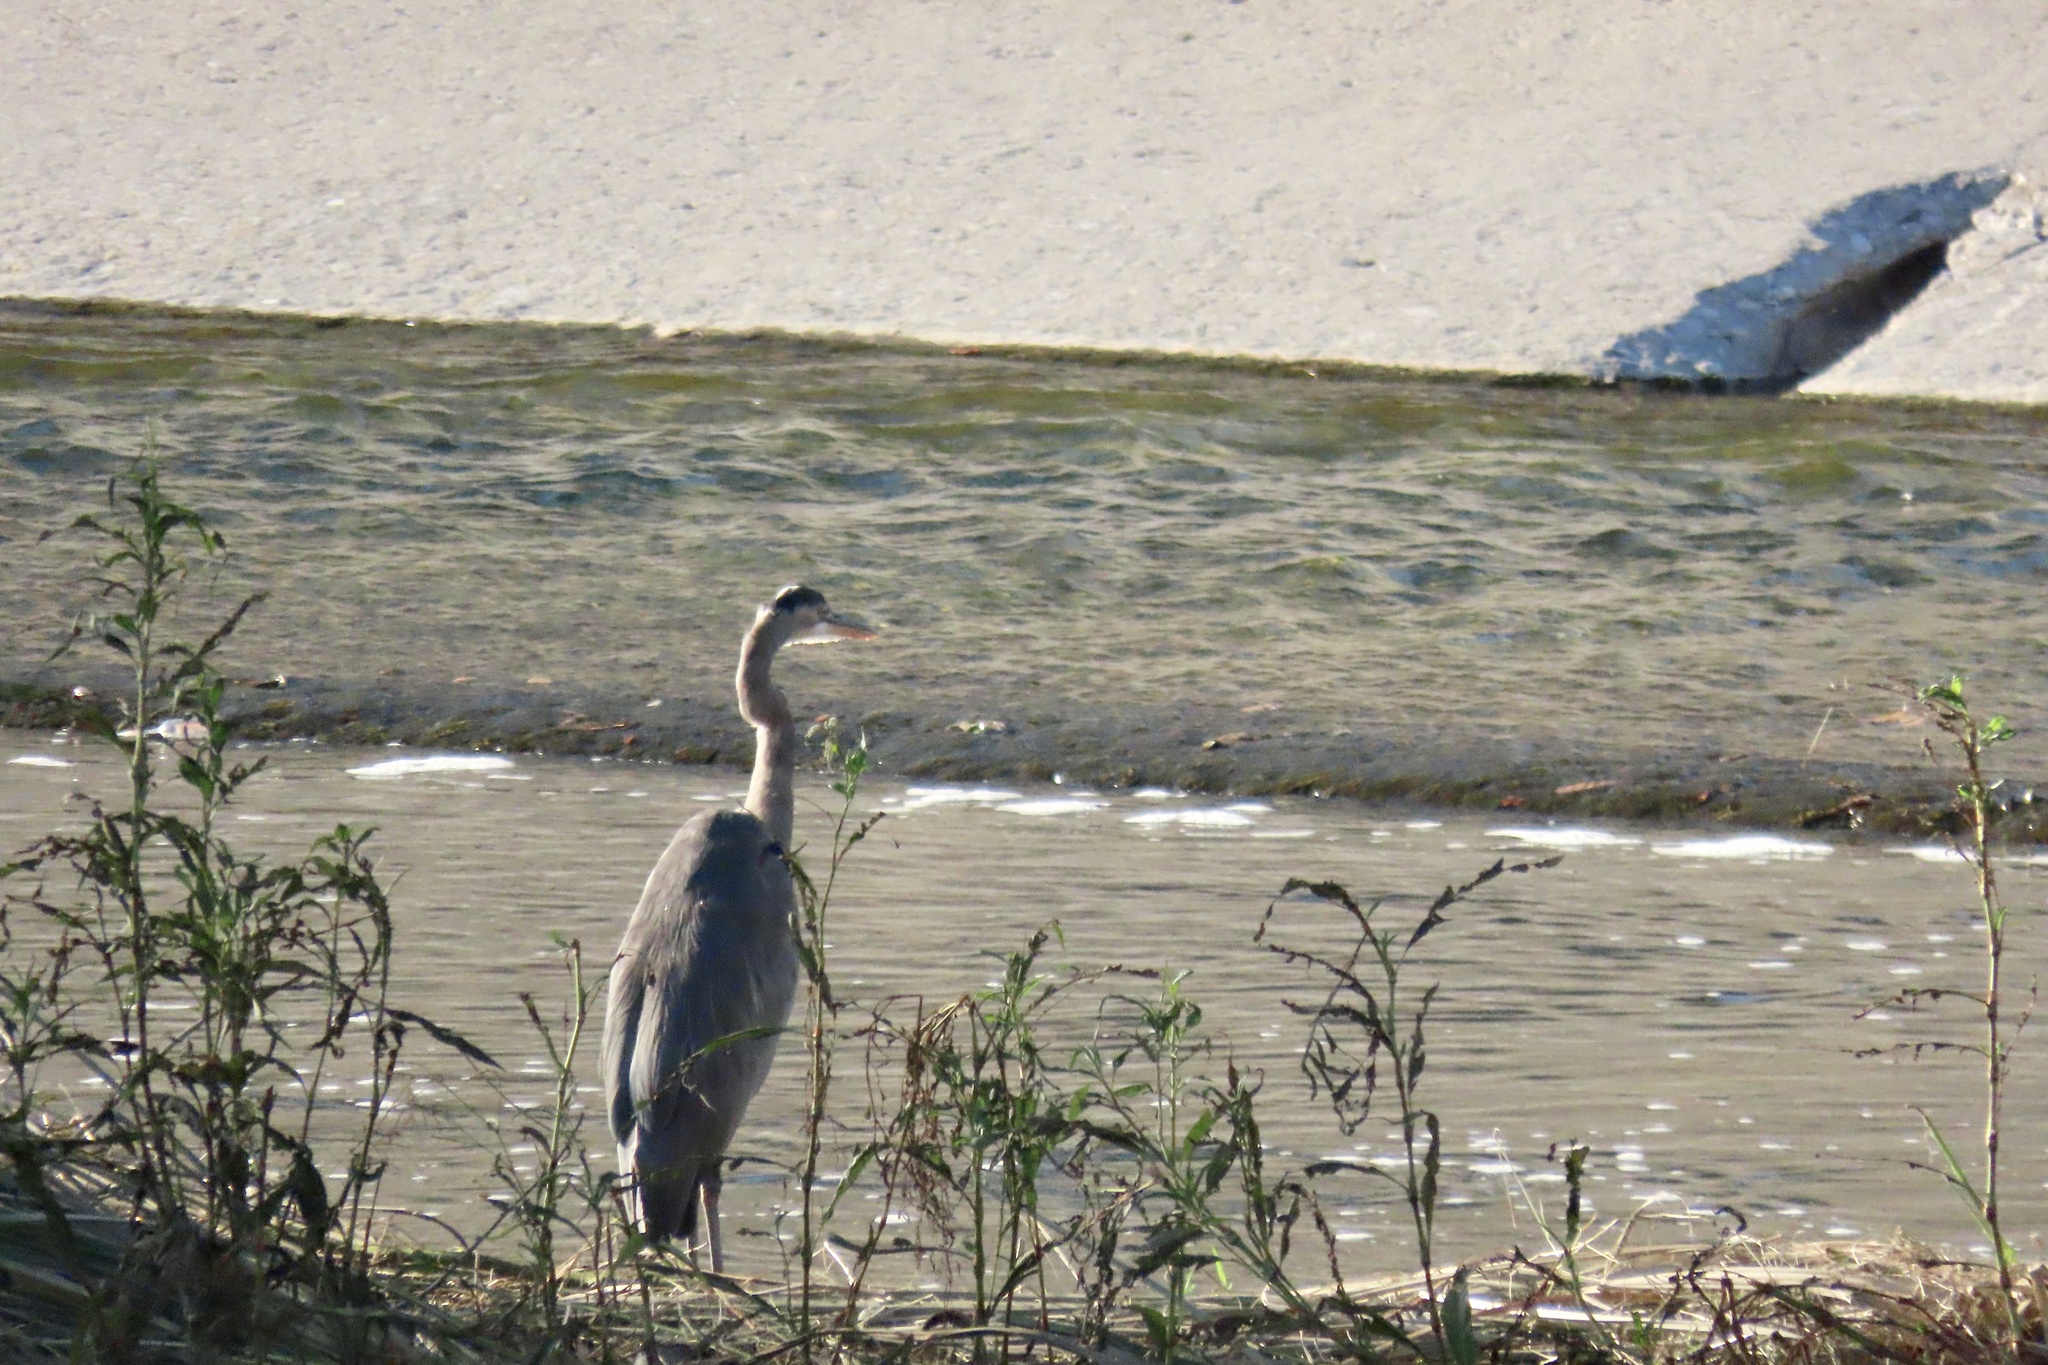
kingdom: Animalia
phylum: Chordata
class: Aves
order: Pelecaniformes
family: Ardeidae
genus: Ardea
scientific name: Ardea herodias
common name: Great blue heron
